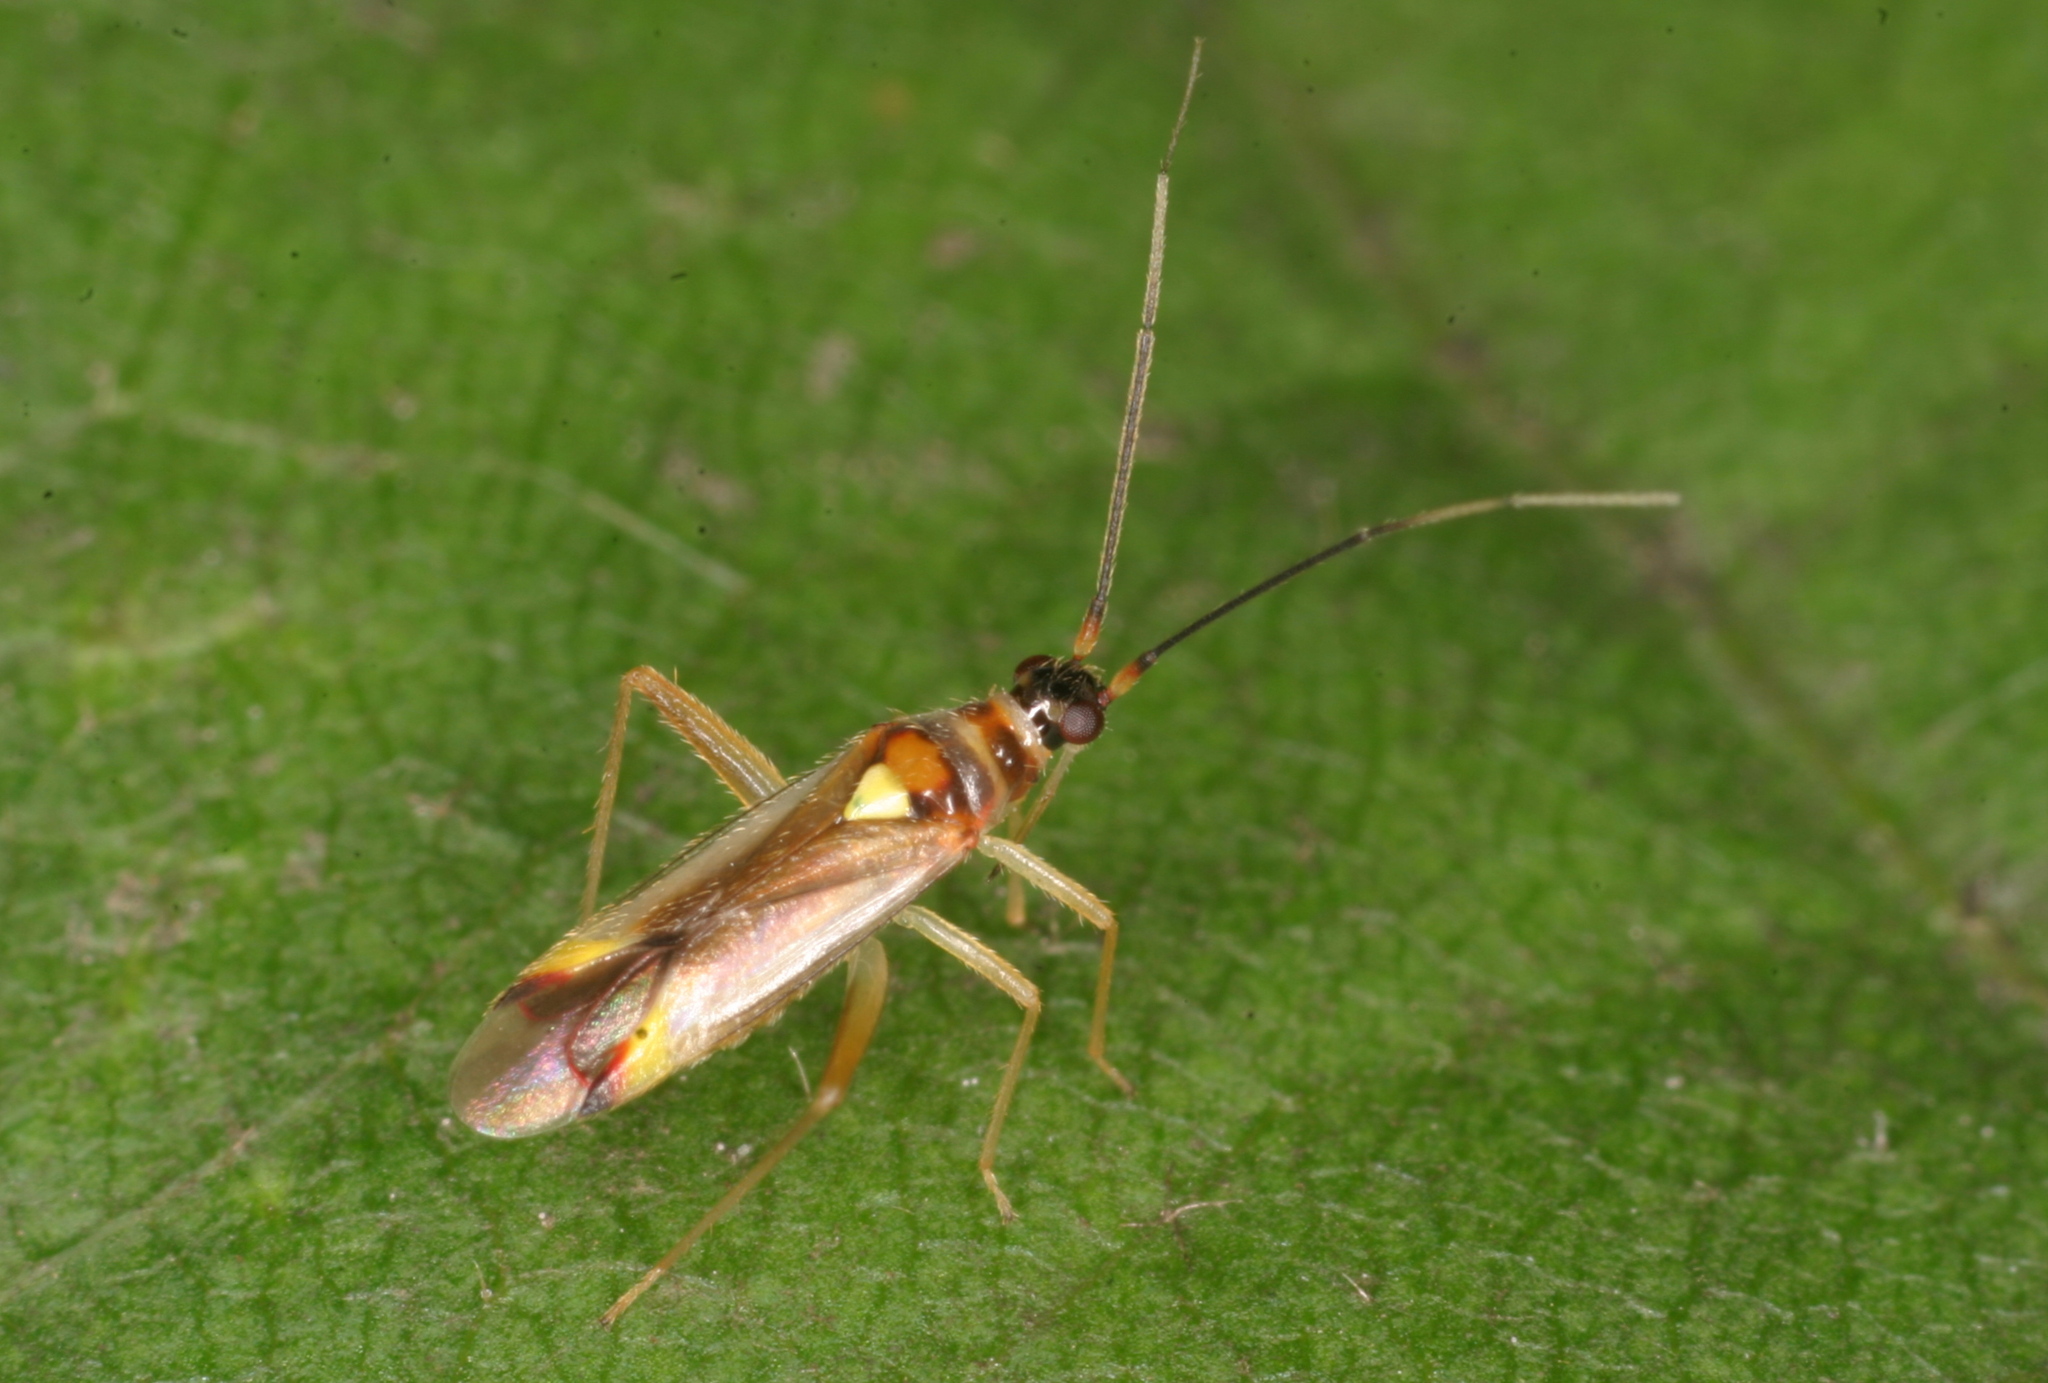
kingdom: Animalia
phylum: Arthropoda
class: Insecta
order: Hemiptera
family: Miridae
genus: Campyloneura
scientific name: Campyloneura virgula
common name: Predatory bug
